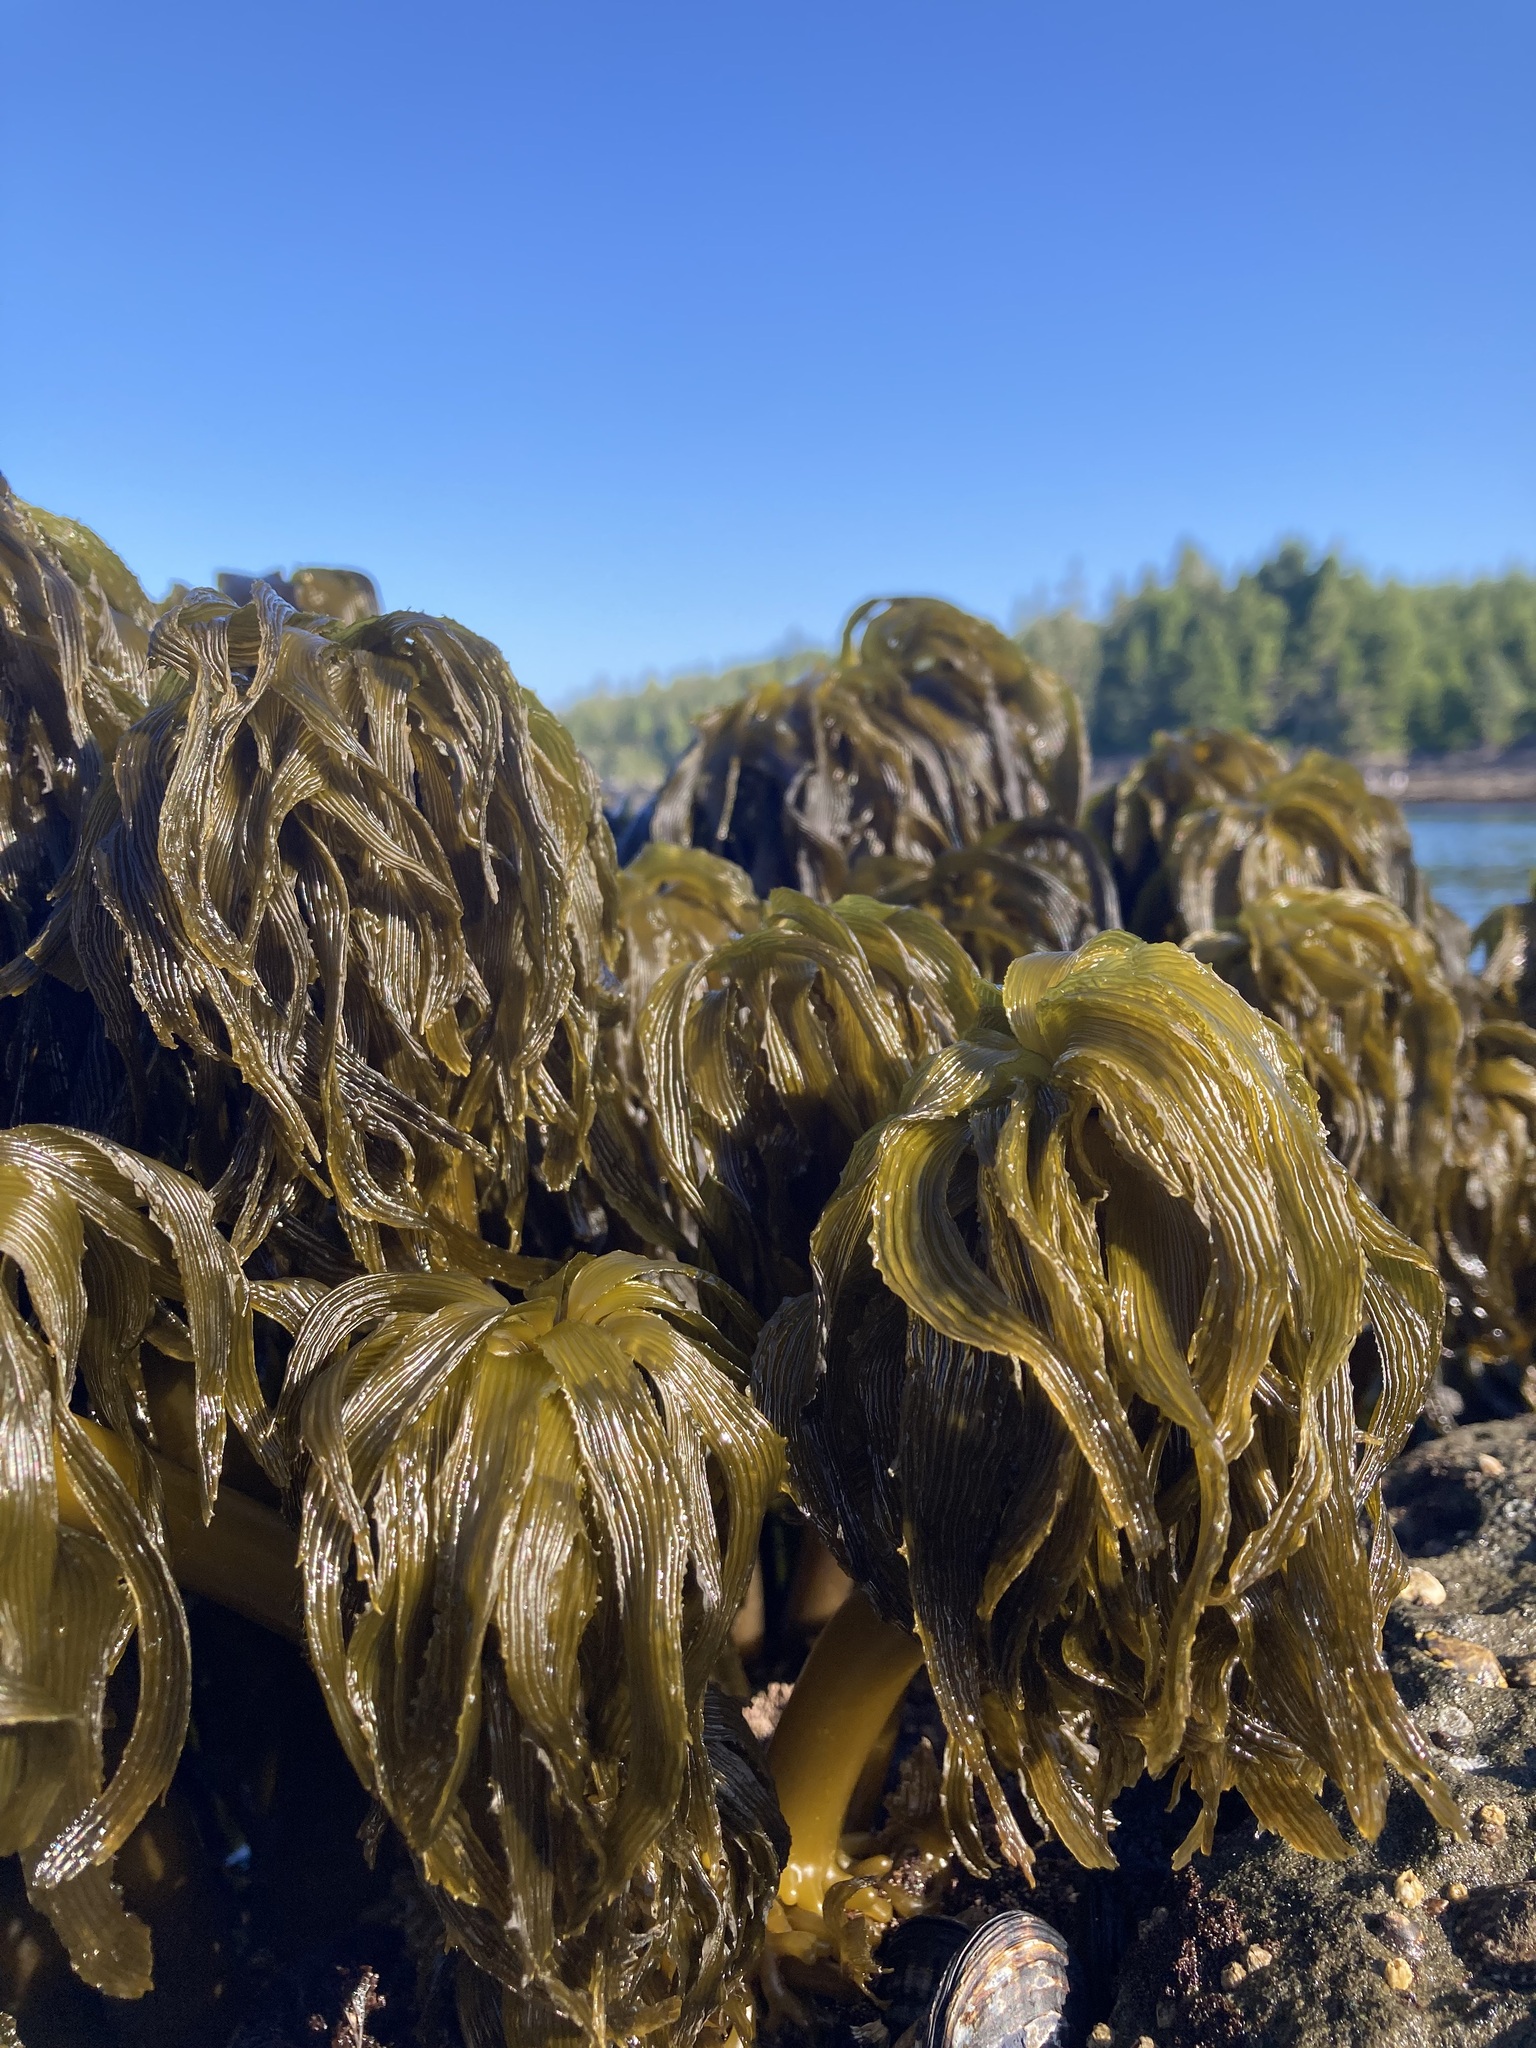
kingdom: Chromista
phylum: Ochrophyta
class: Phaeophyceae
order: Laminariales
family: Laminariaceae
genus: Postelsia
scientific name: Postelsia palmiformis
